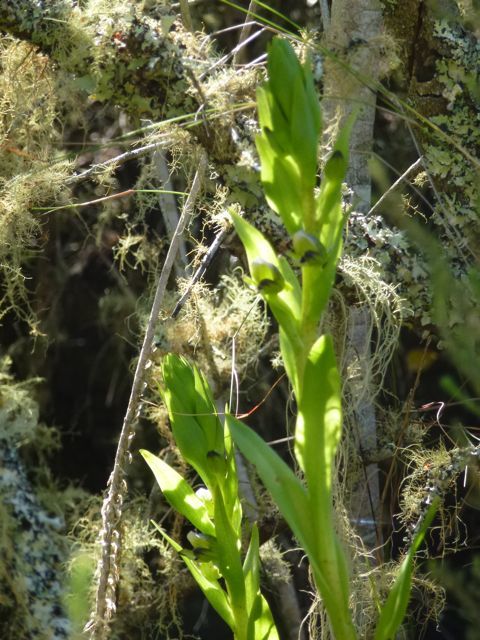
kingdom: Plantae
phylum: Tracheophyta
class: Liliopsida
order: Asparagales
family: Orchidaceae
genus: Disa
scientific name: Disa hallackii
